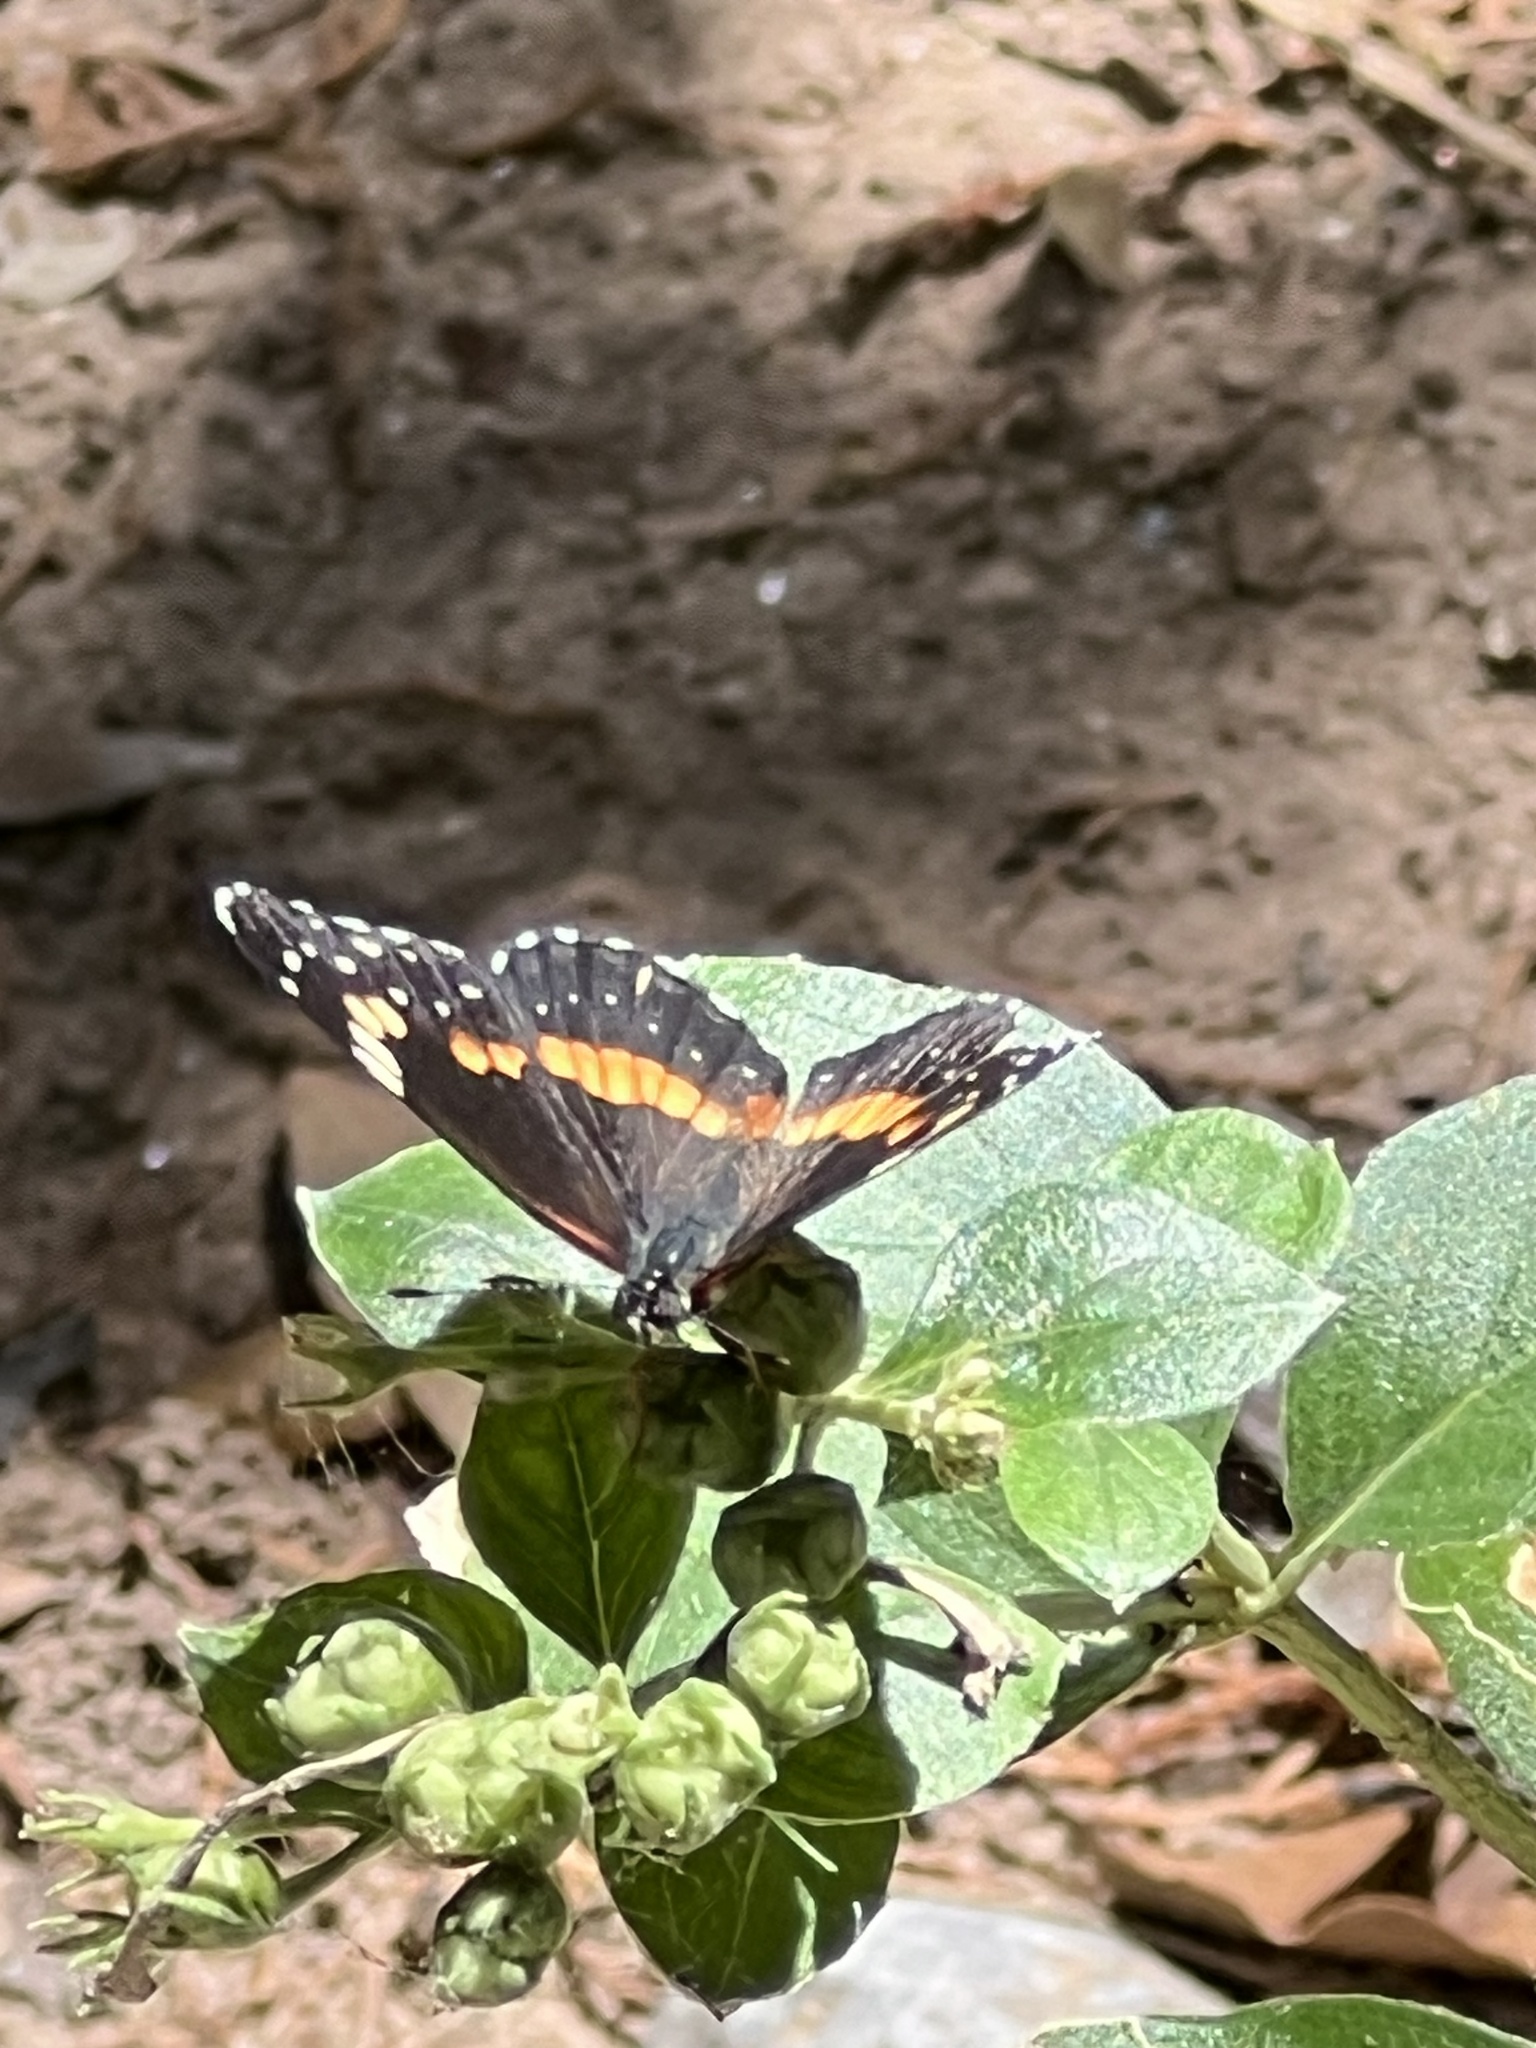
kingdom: Animalia
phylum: Arthropoda
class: Insecta
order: Lepidoptera
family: Nymphalidae
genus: Chlosyne
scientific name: Chlosyne lacinia
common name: Bordered patch
